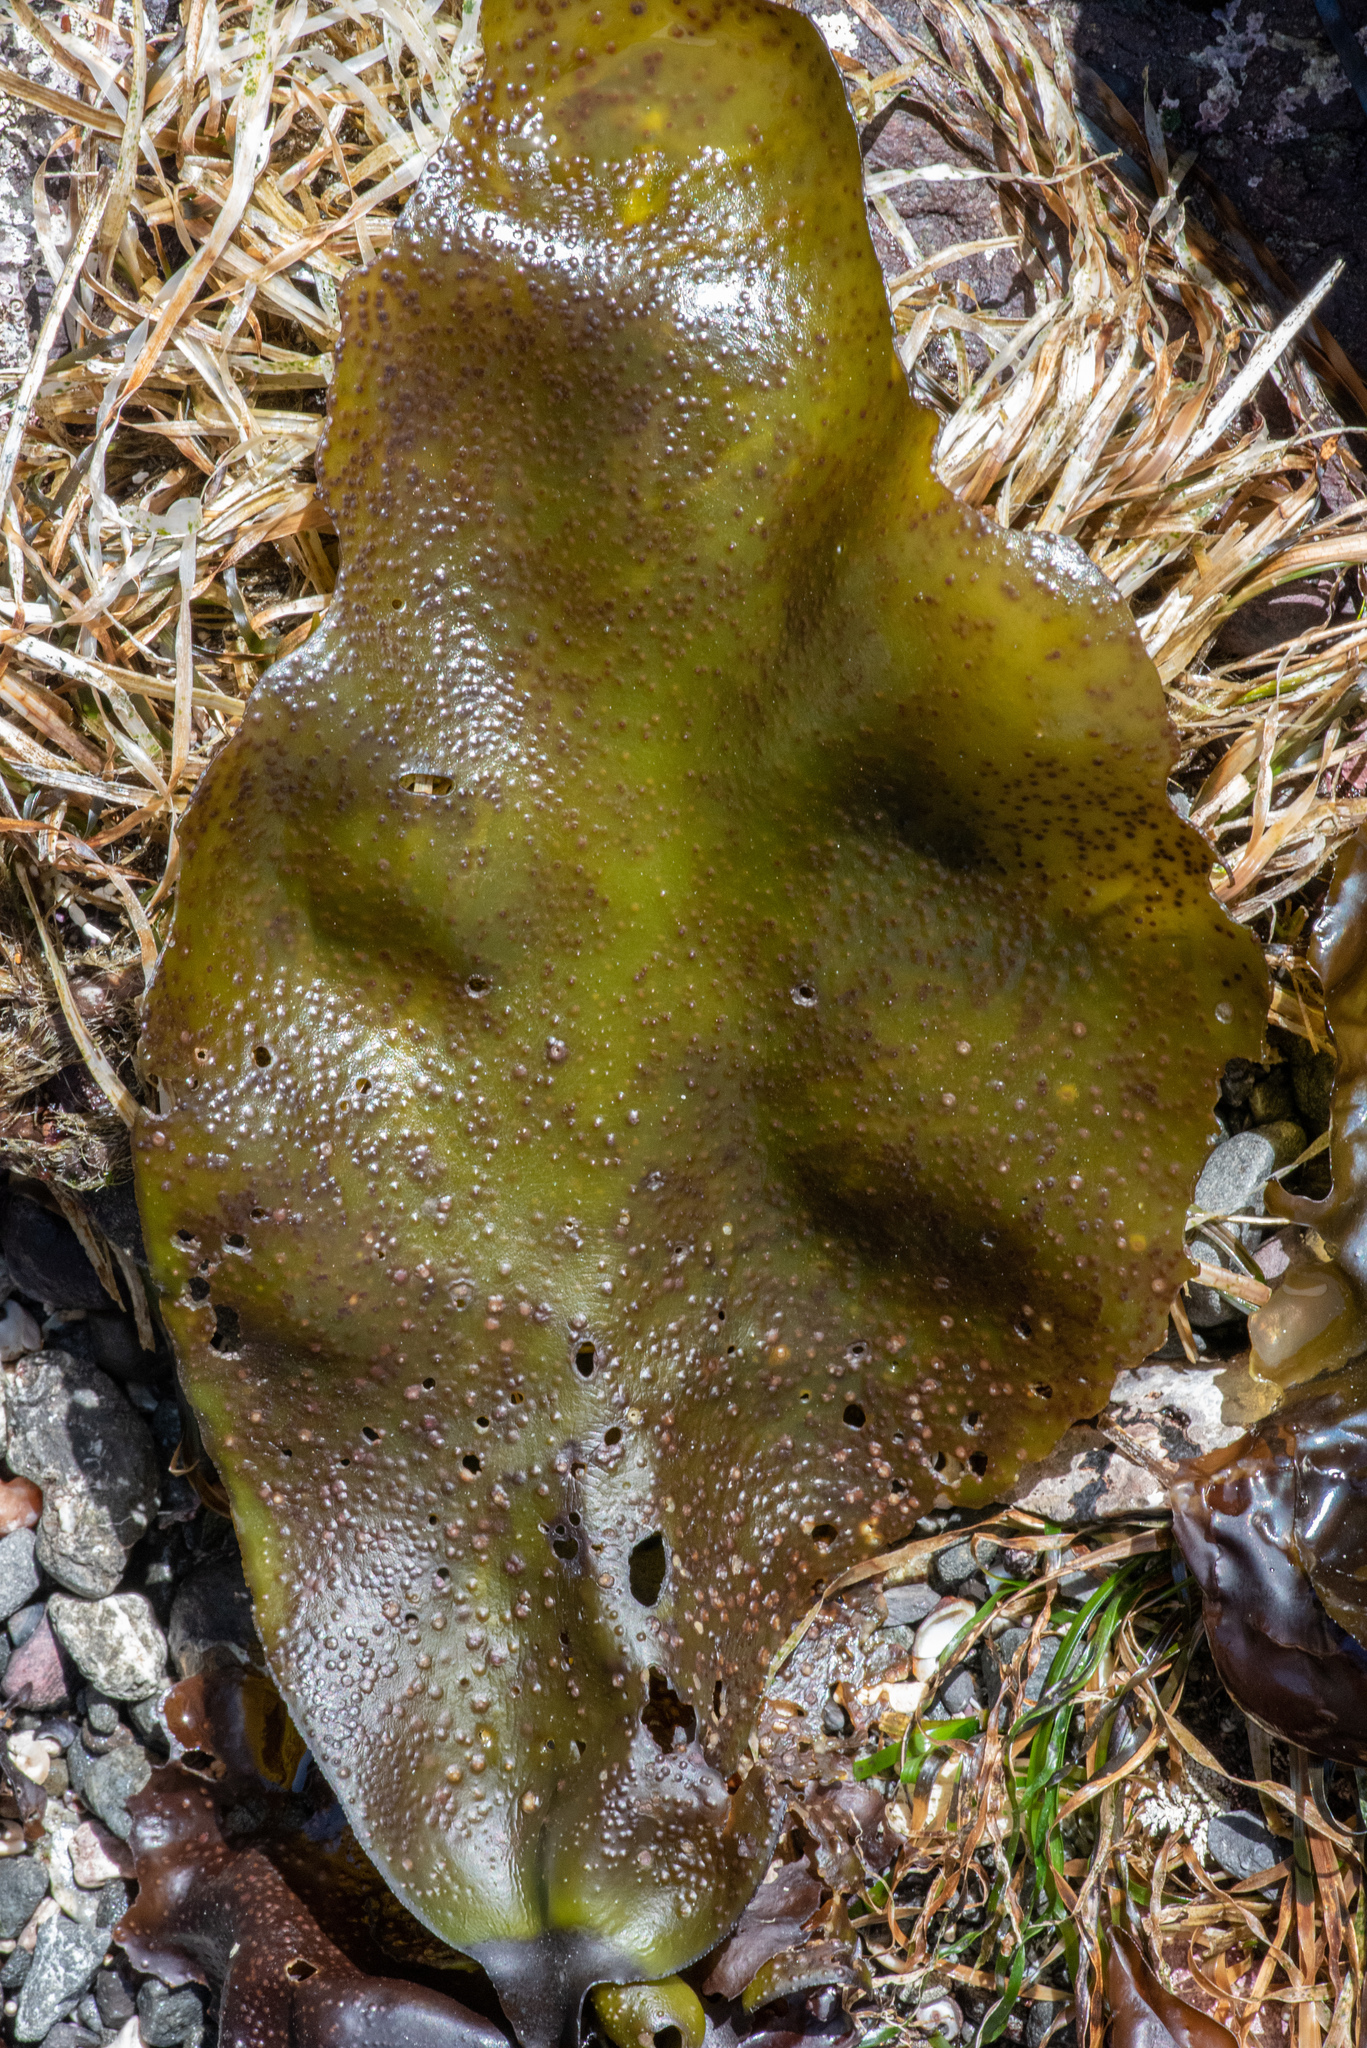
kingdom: Plantae
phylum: Rhodophyta
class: Florideophyceae
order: Gigartinales
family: Gigartinaceae
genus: Mazzaella
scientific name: Mazzaella flaccida
